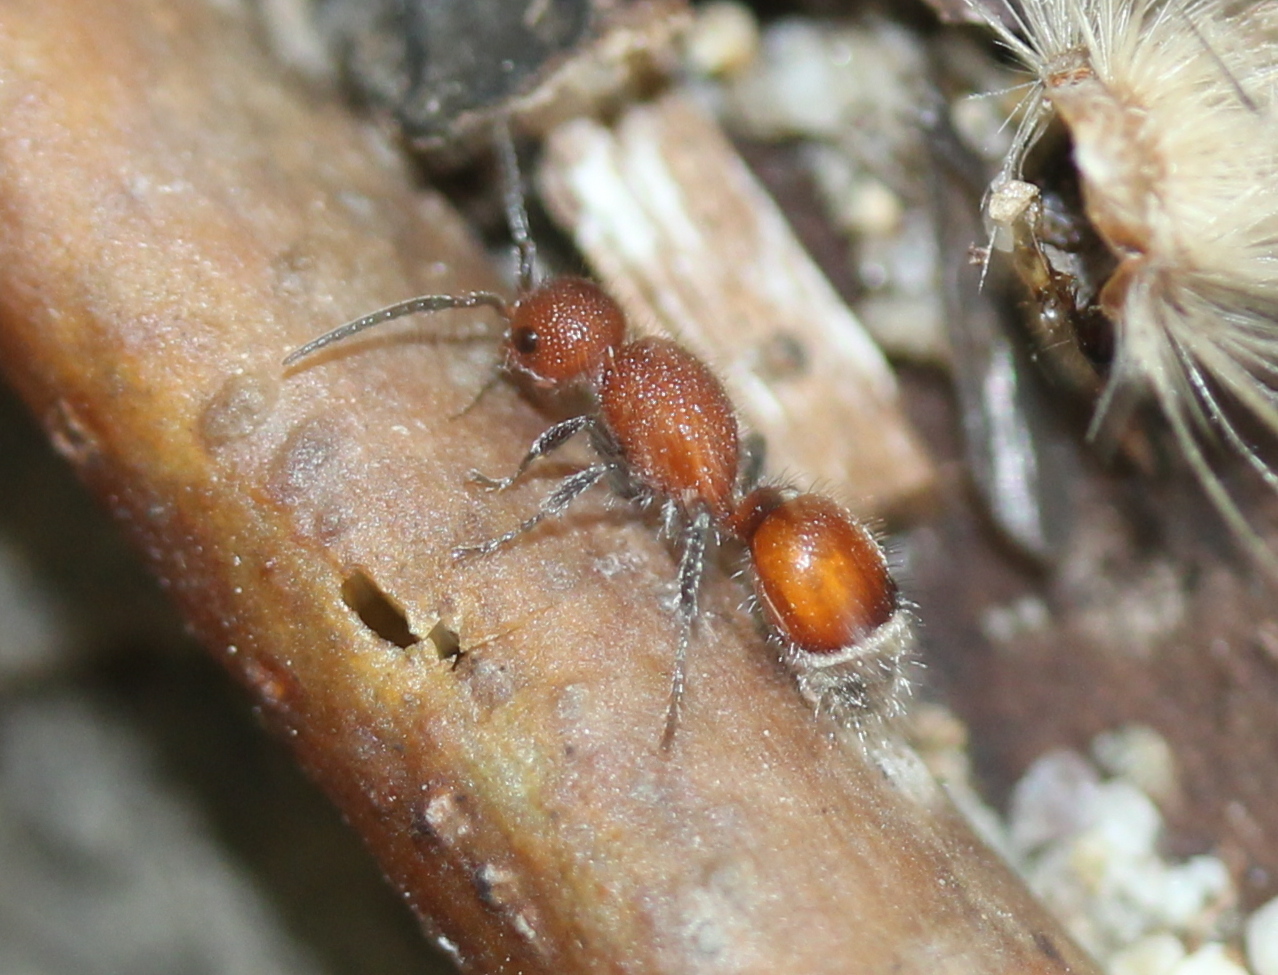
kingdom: Animalia
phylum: Arthropoda
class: Insecta
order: Hymenoptera
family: Mutillidae
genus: Sphaeropthalma
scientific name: Sphaeropthalma
